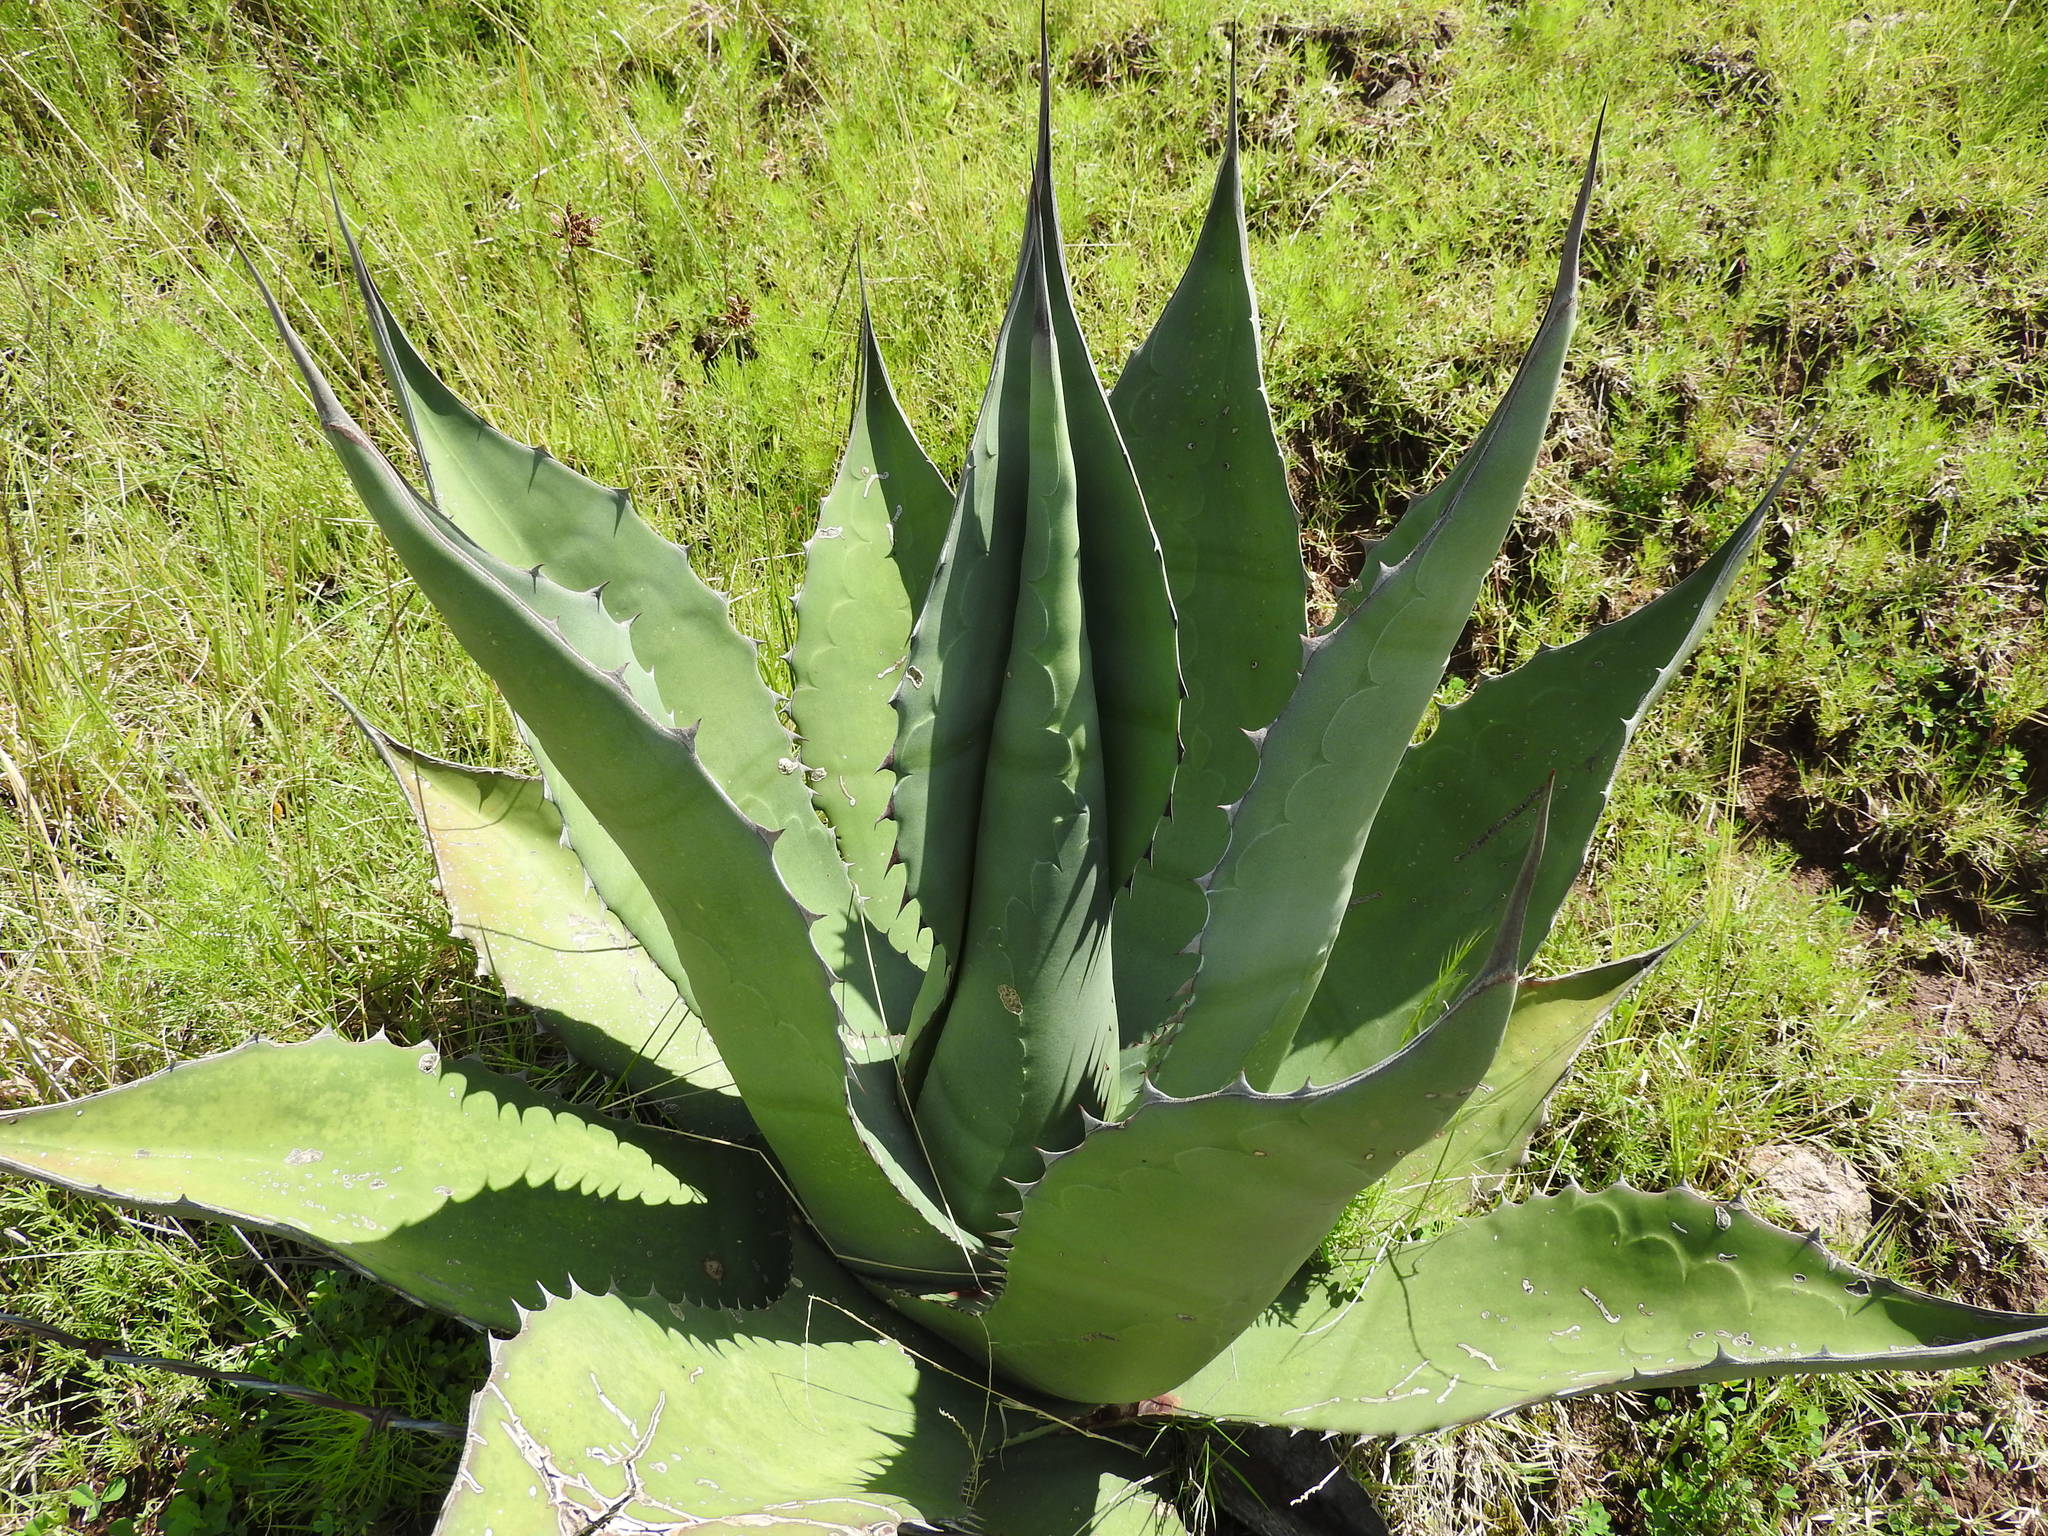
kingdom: Plantae
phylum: Tracheophyta
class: Liliopsida
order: Asparagales
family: Asparagaceae
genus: Agave
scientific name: Agave salmiana
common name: Pulque agave
